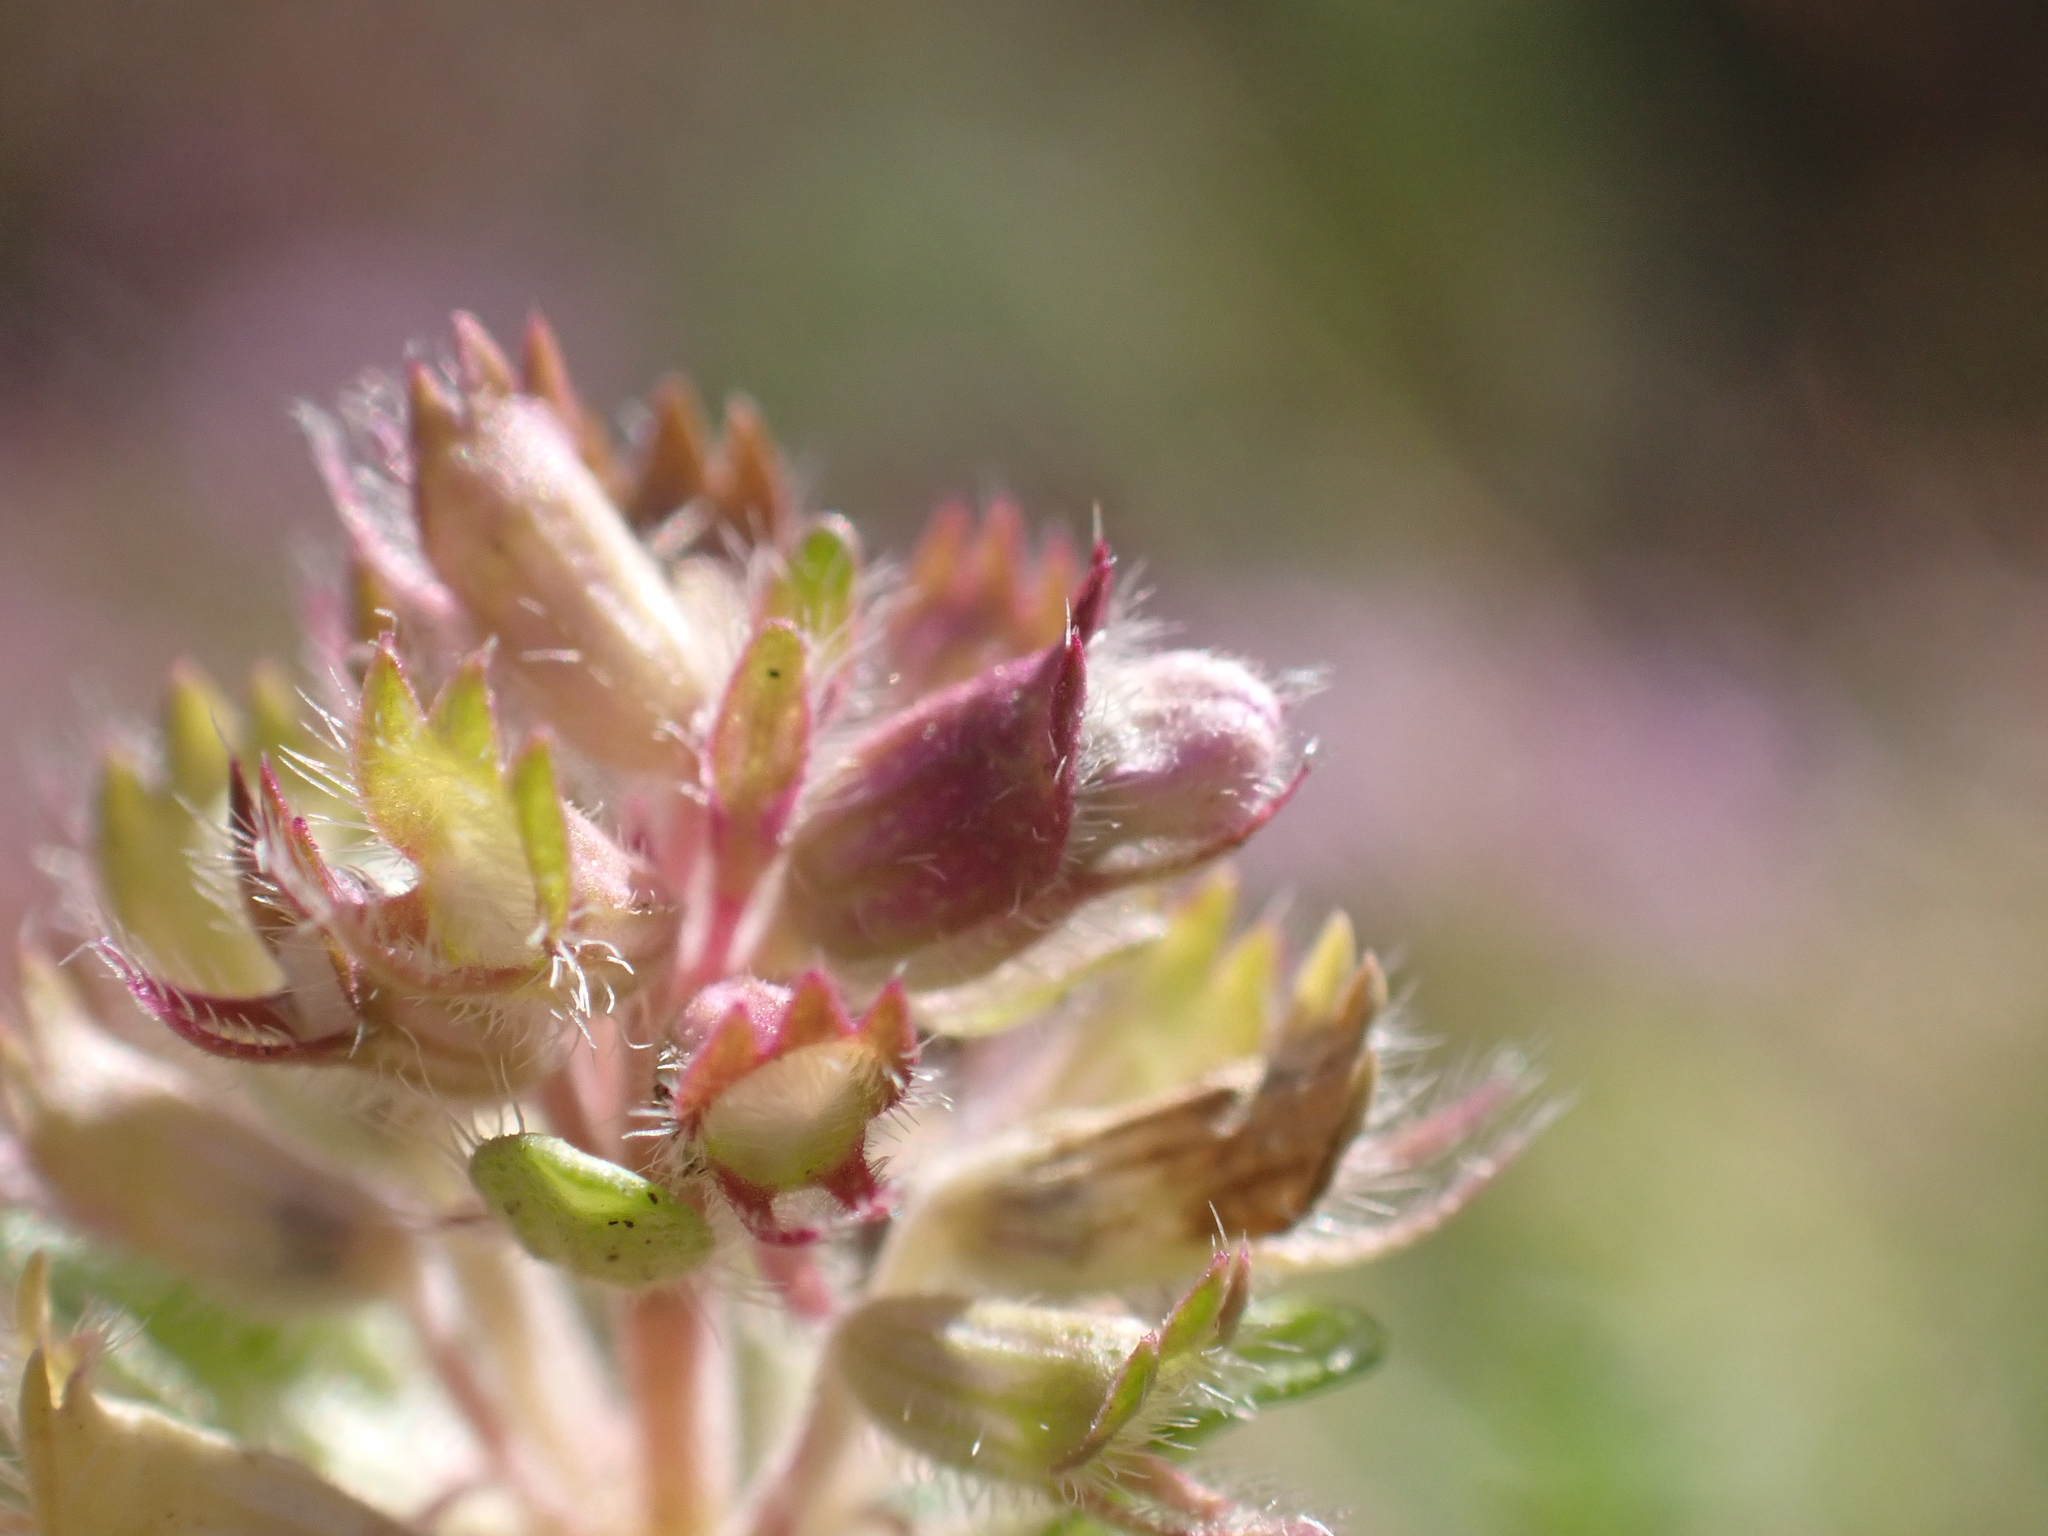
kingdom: Animalia
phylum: Arthropoda
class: Insecta
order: Diptera
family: Cecidomyiidae
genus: Asphondylia
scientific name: Asphondylia serpylli
